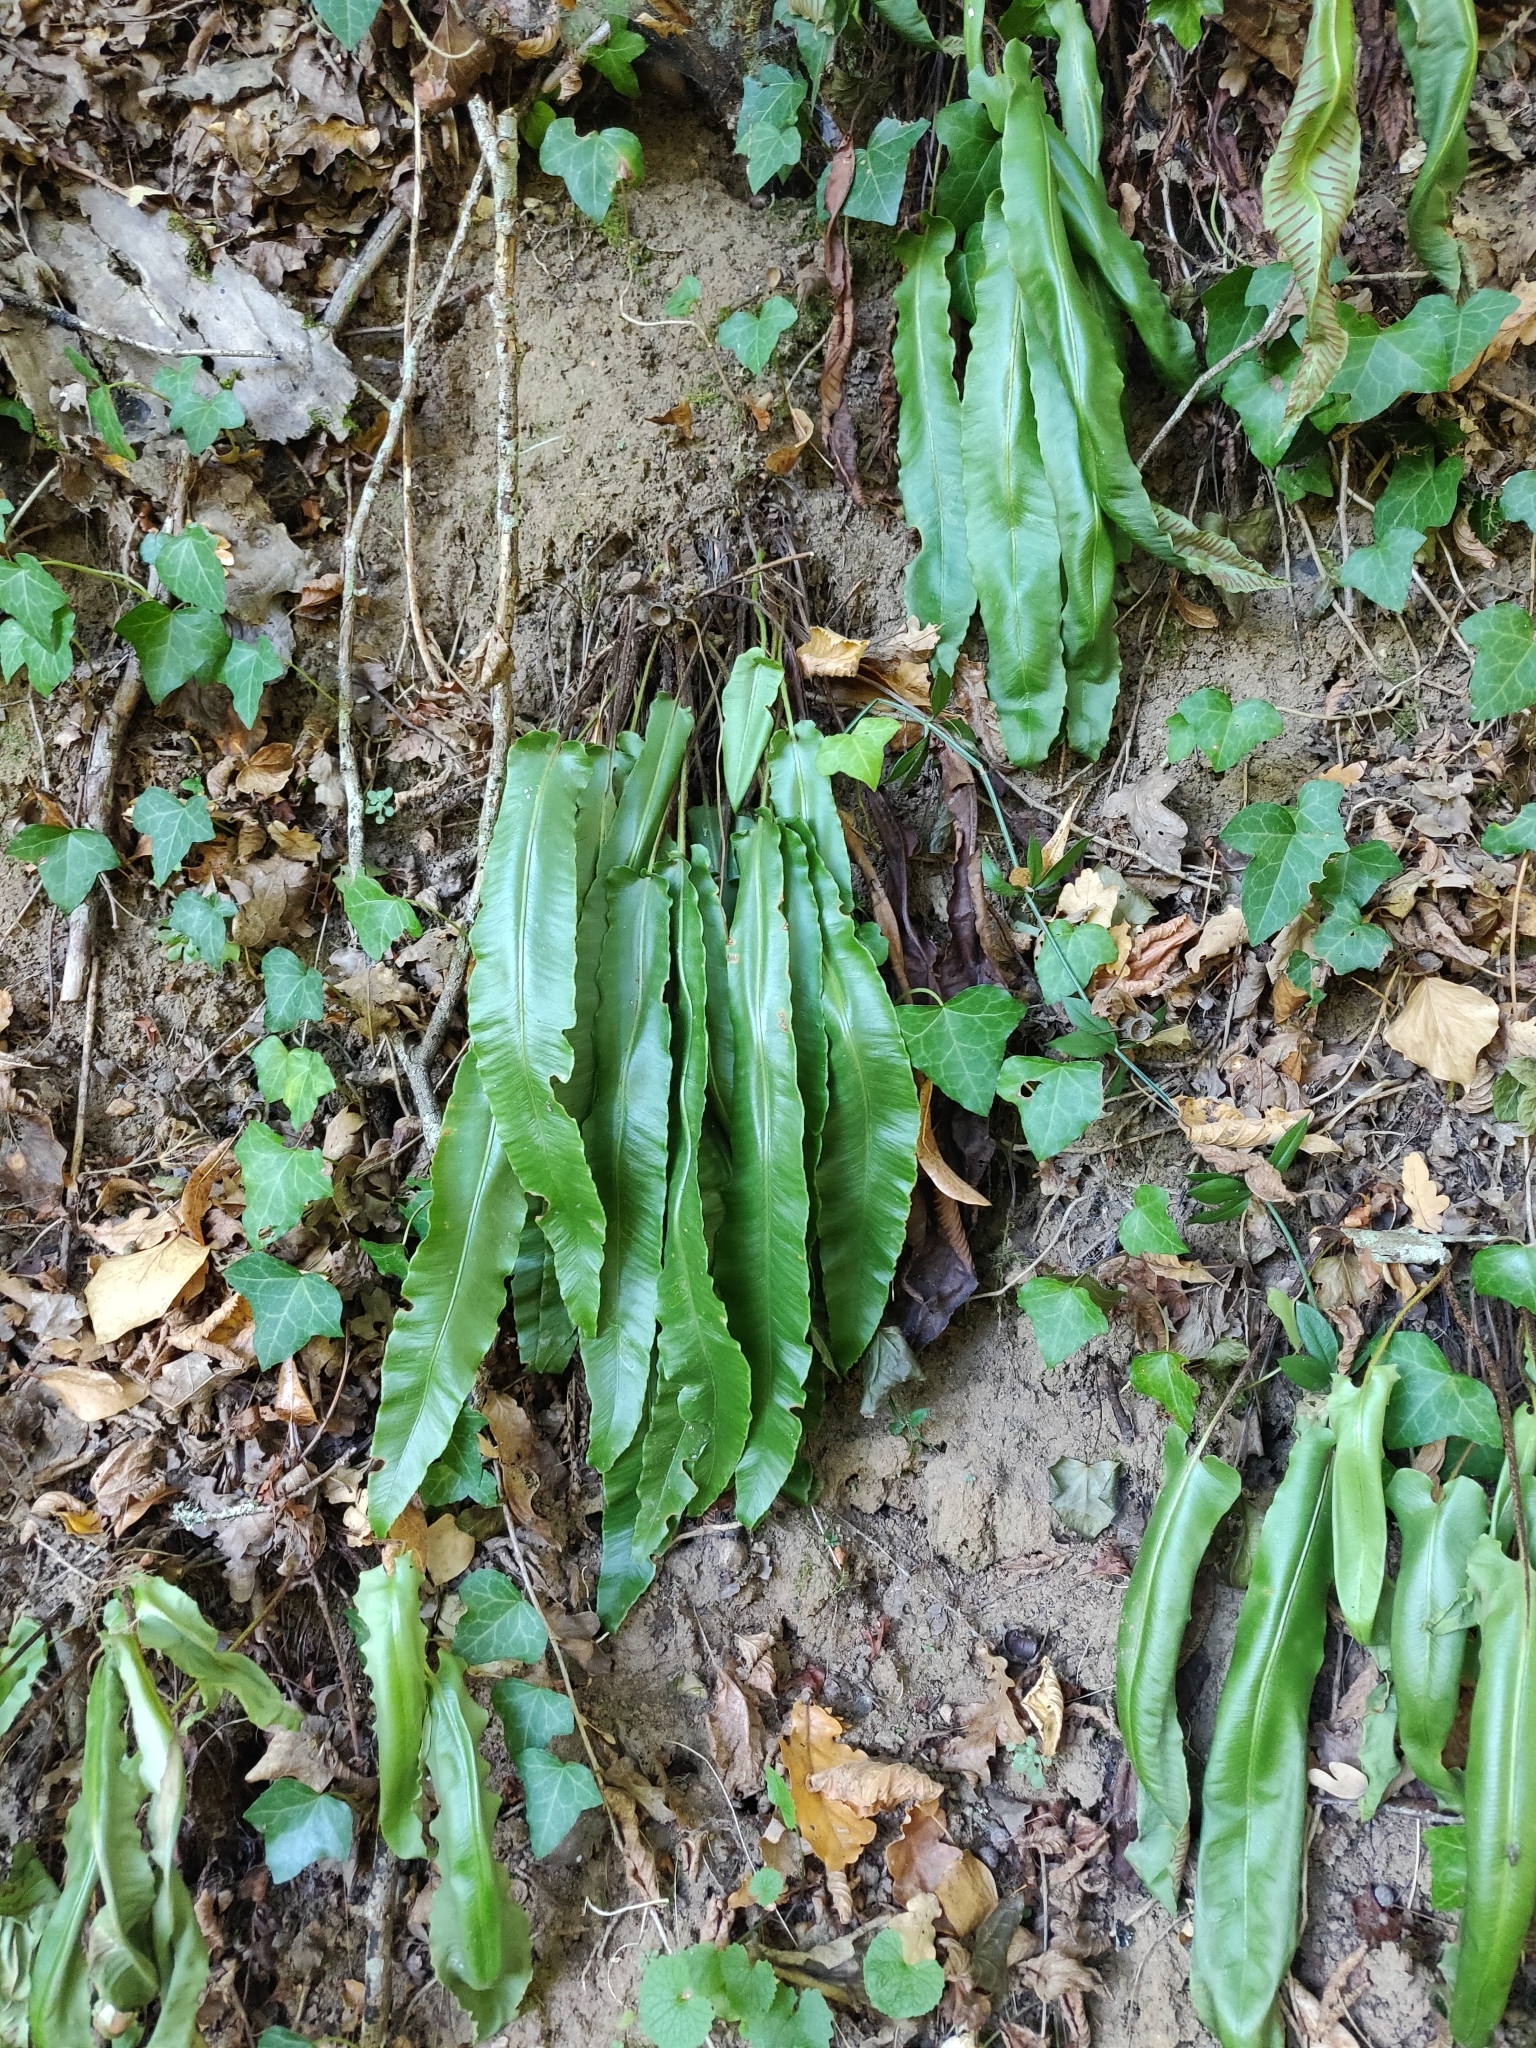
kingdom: Plantae
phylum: Tracheophyta
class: Polypodiopsida
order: Polypodiales
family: Aspleniaceae
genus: Asplenium
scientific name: Asplenium scolopendrium
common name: Hart's-tongue fern
